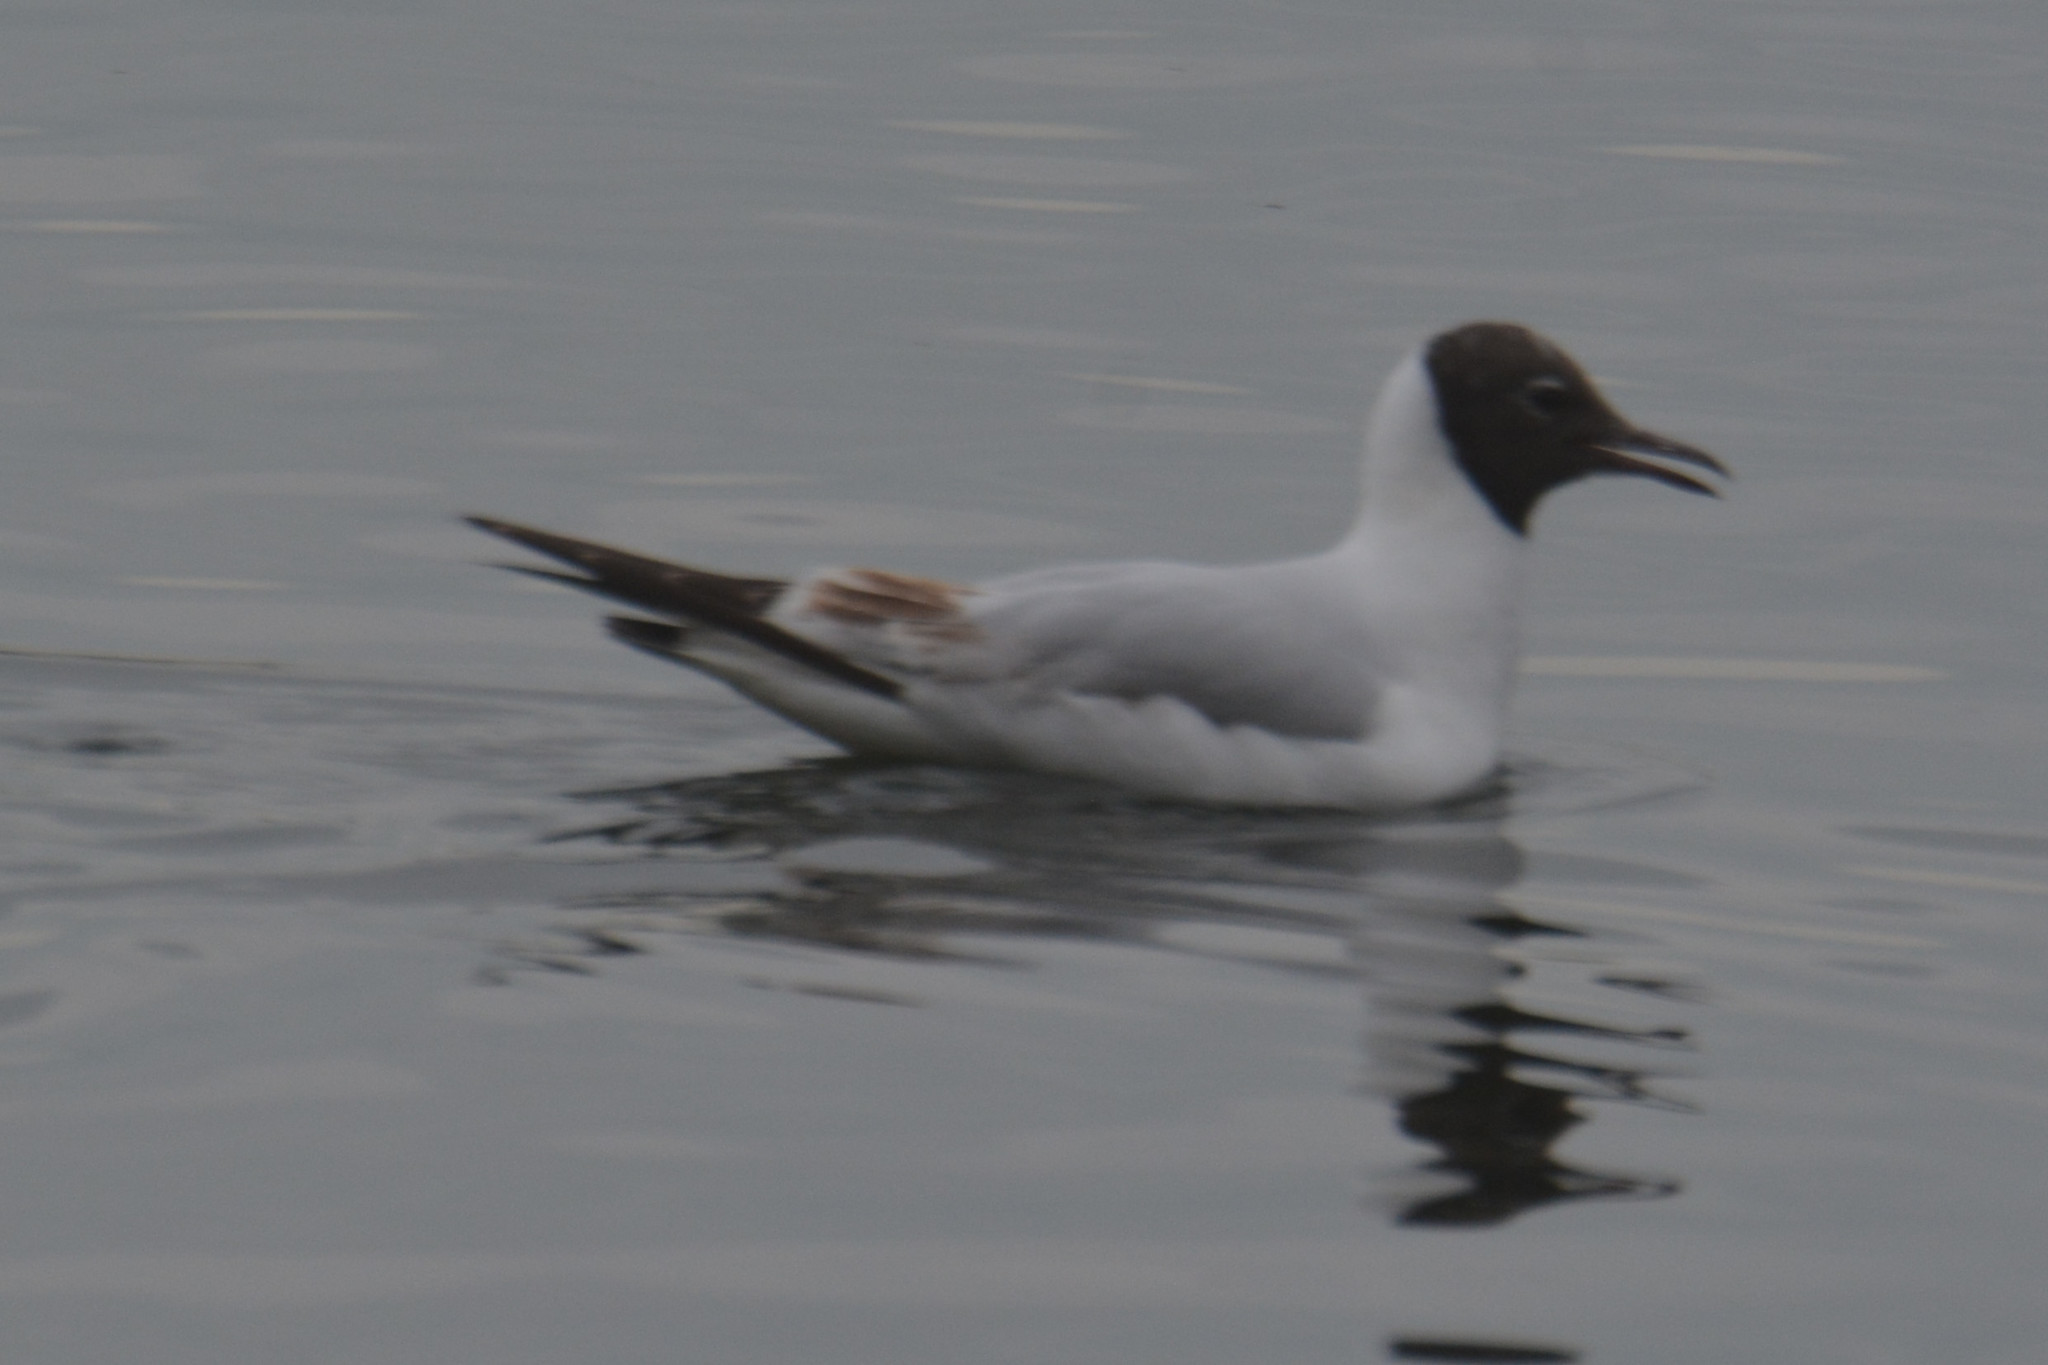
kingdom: Animalia
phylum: Chordata
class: Aves
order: Charadriiformes
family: Laridae
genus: Chroicocephalus
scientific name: Chroicocephalus ridibundus
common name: Black-headed gull
